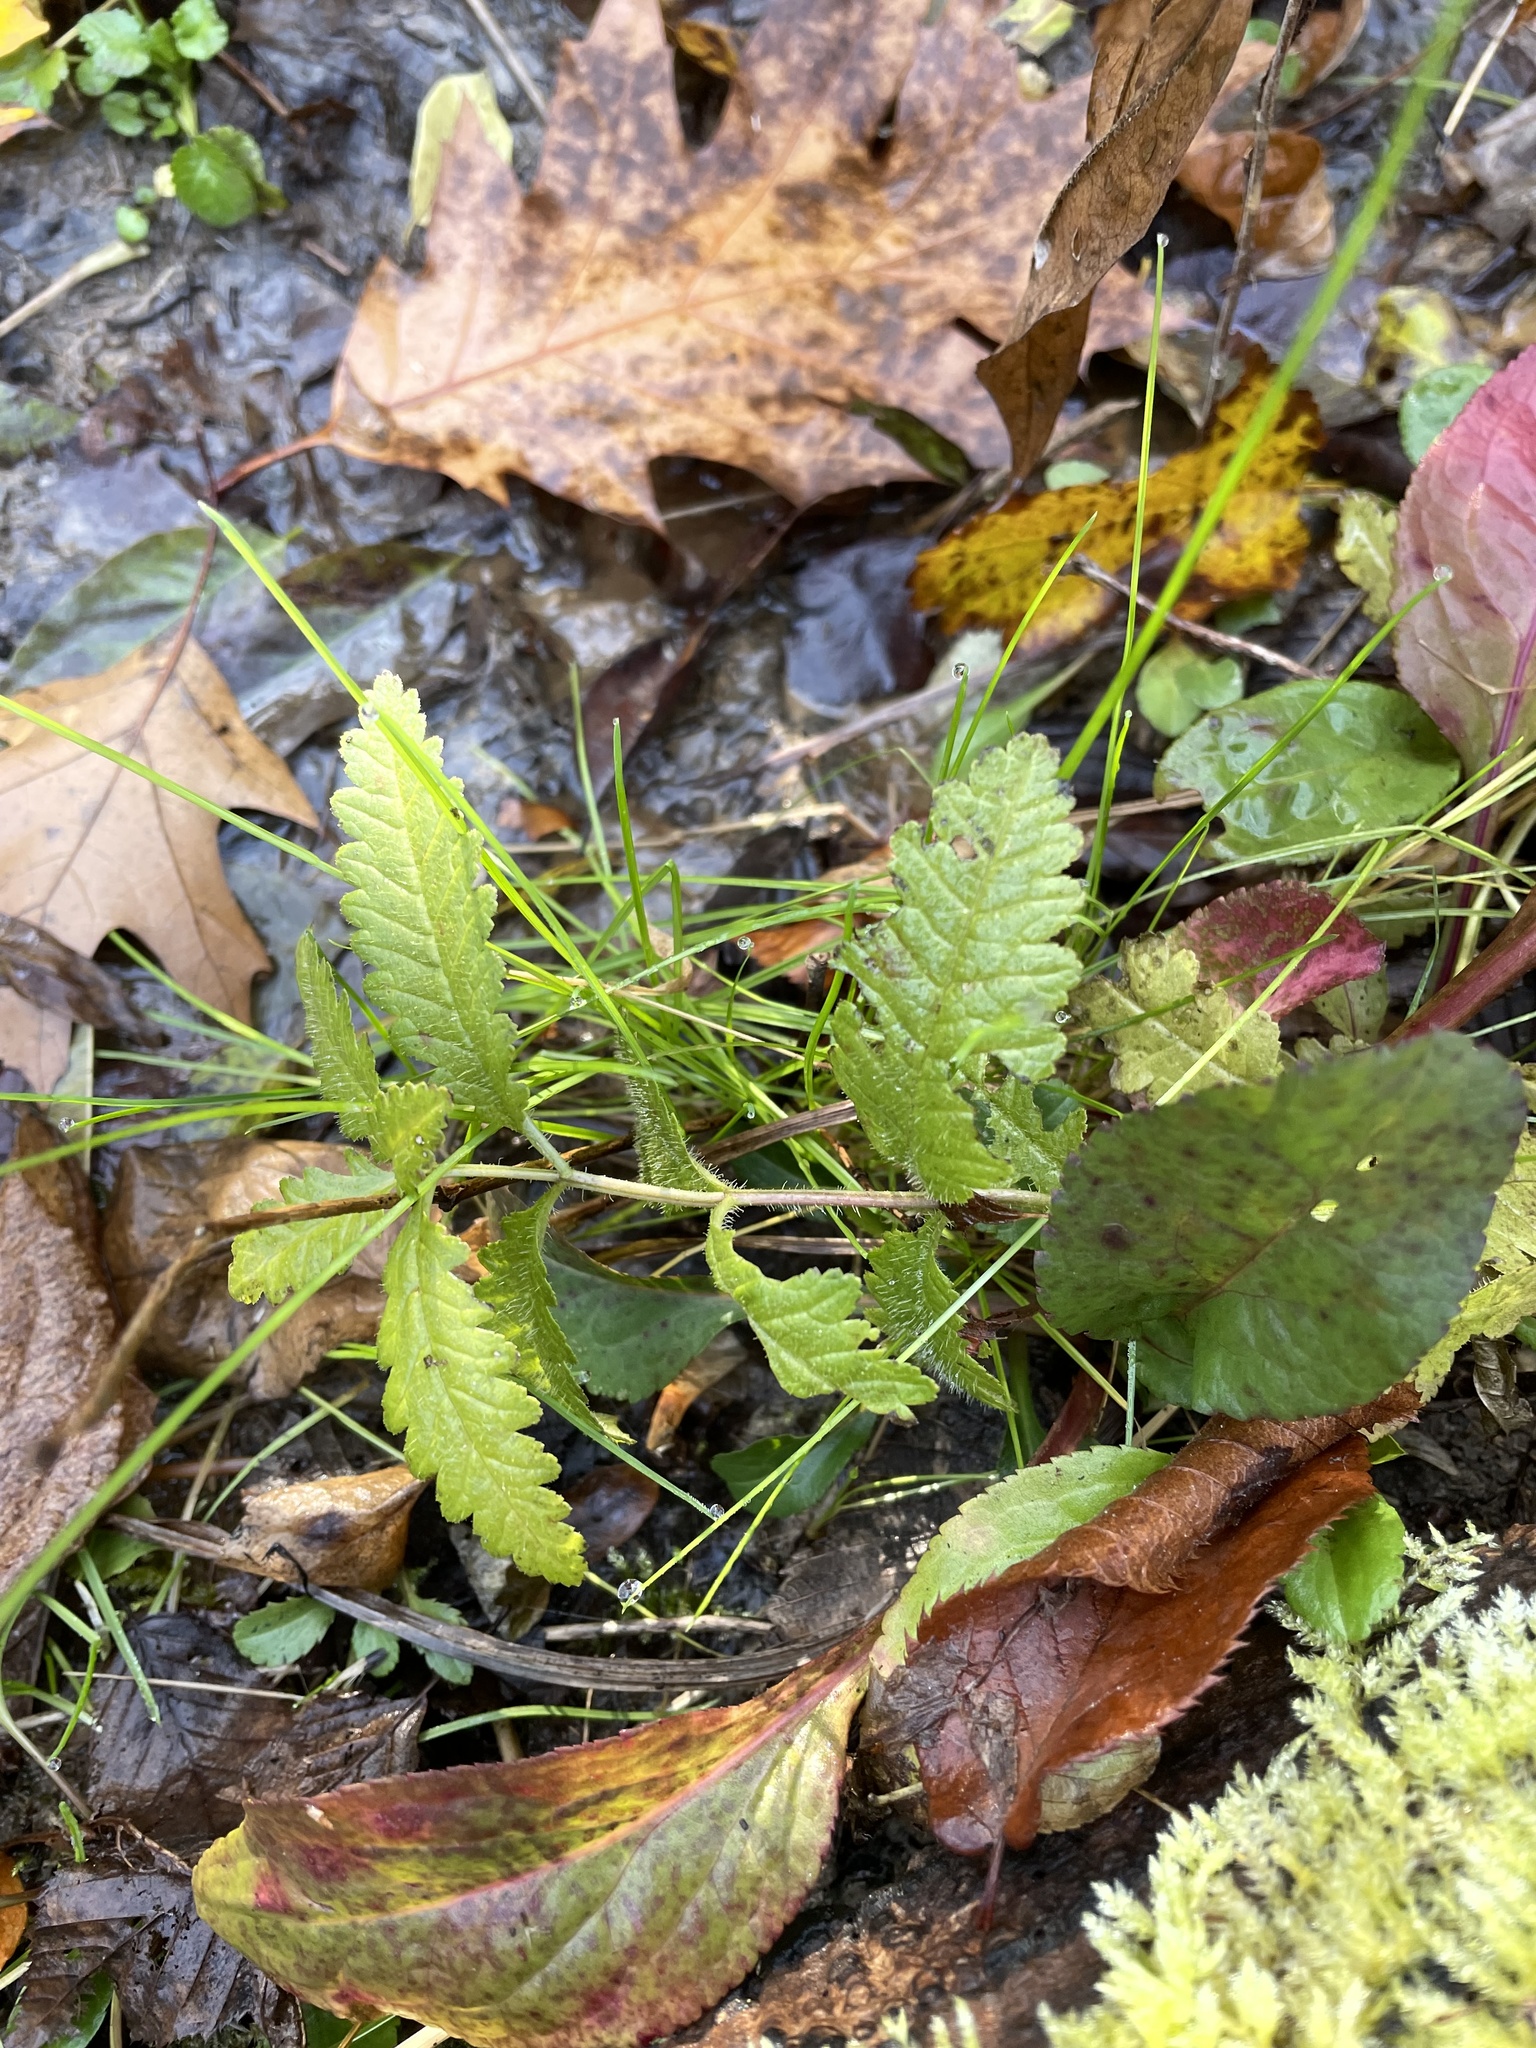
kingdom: Plantae
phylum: Tracheophyta
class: Magnoliopsida
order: Lamiales
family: Orobanchaceae
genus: Pedicularis
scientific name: Pedicularis lanceolata
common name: Swamp lousewort
